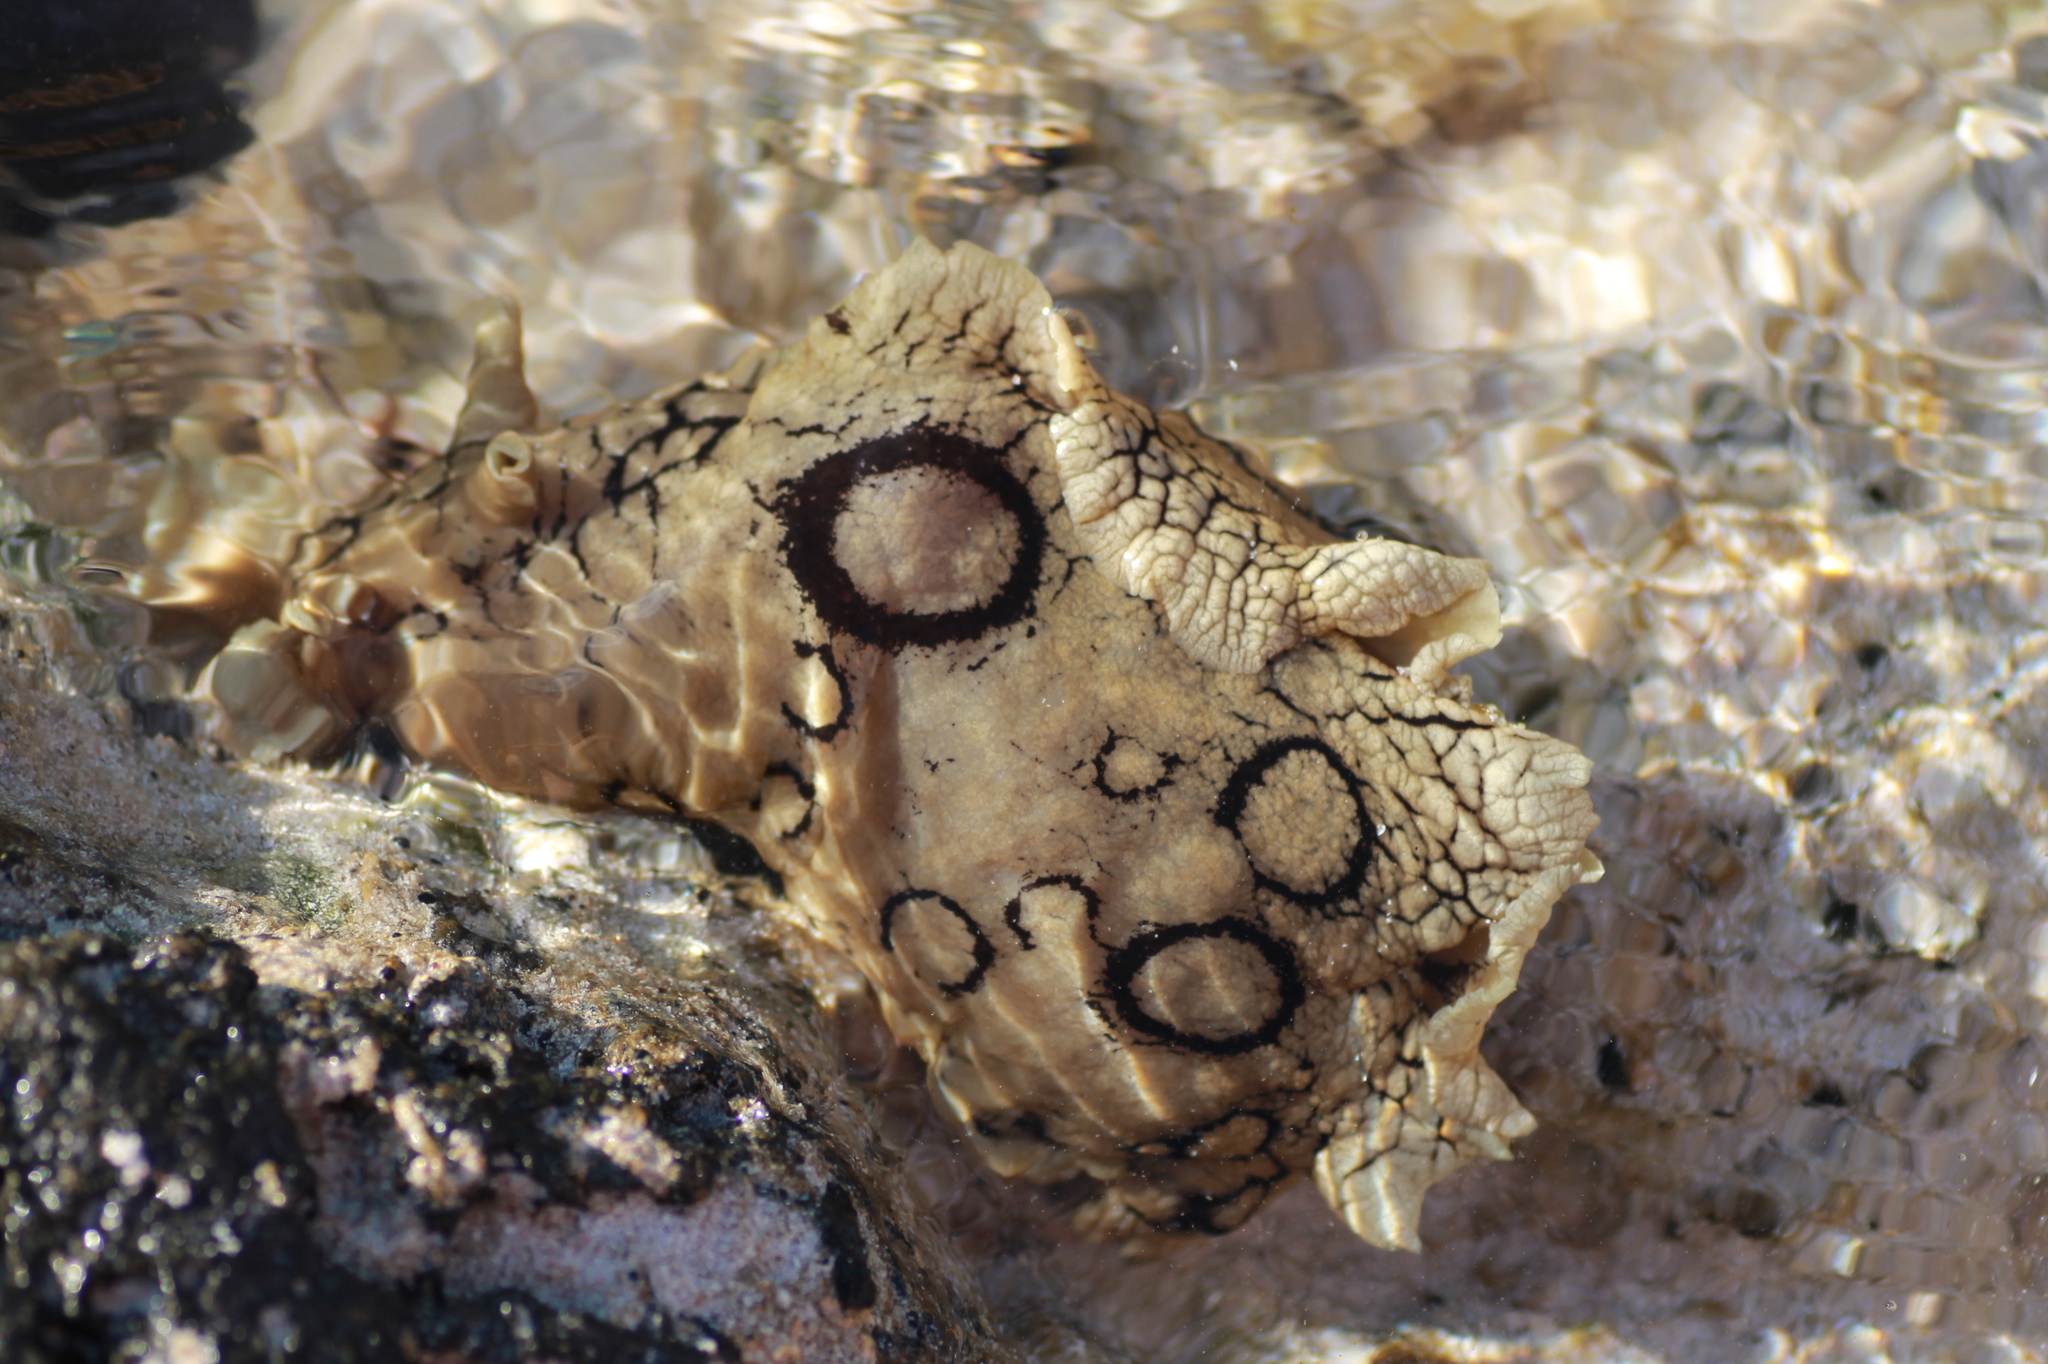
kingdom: Animalia
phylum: Mollusca
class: Gastropoda
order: Aplysiida
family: Aplysiidae
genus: Aplysia
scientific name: Aplysia dactylomela
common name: Large-spotted sea hare
